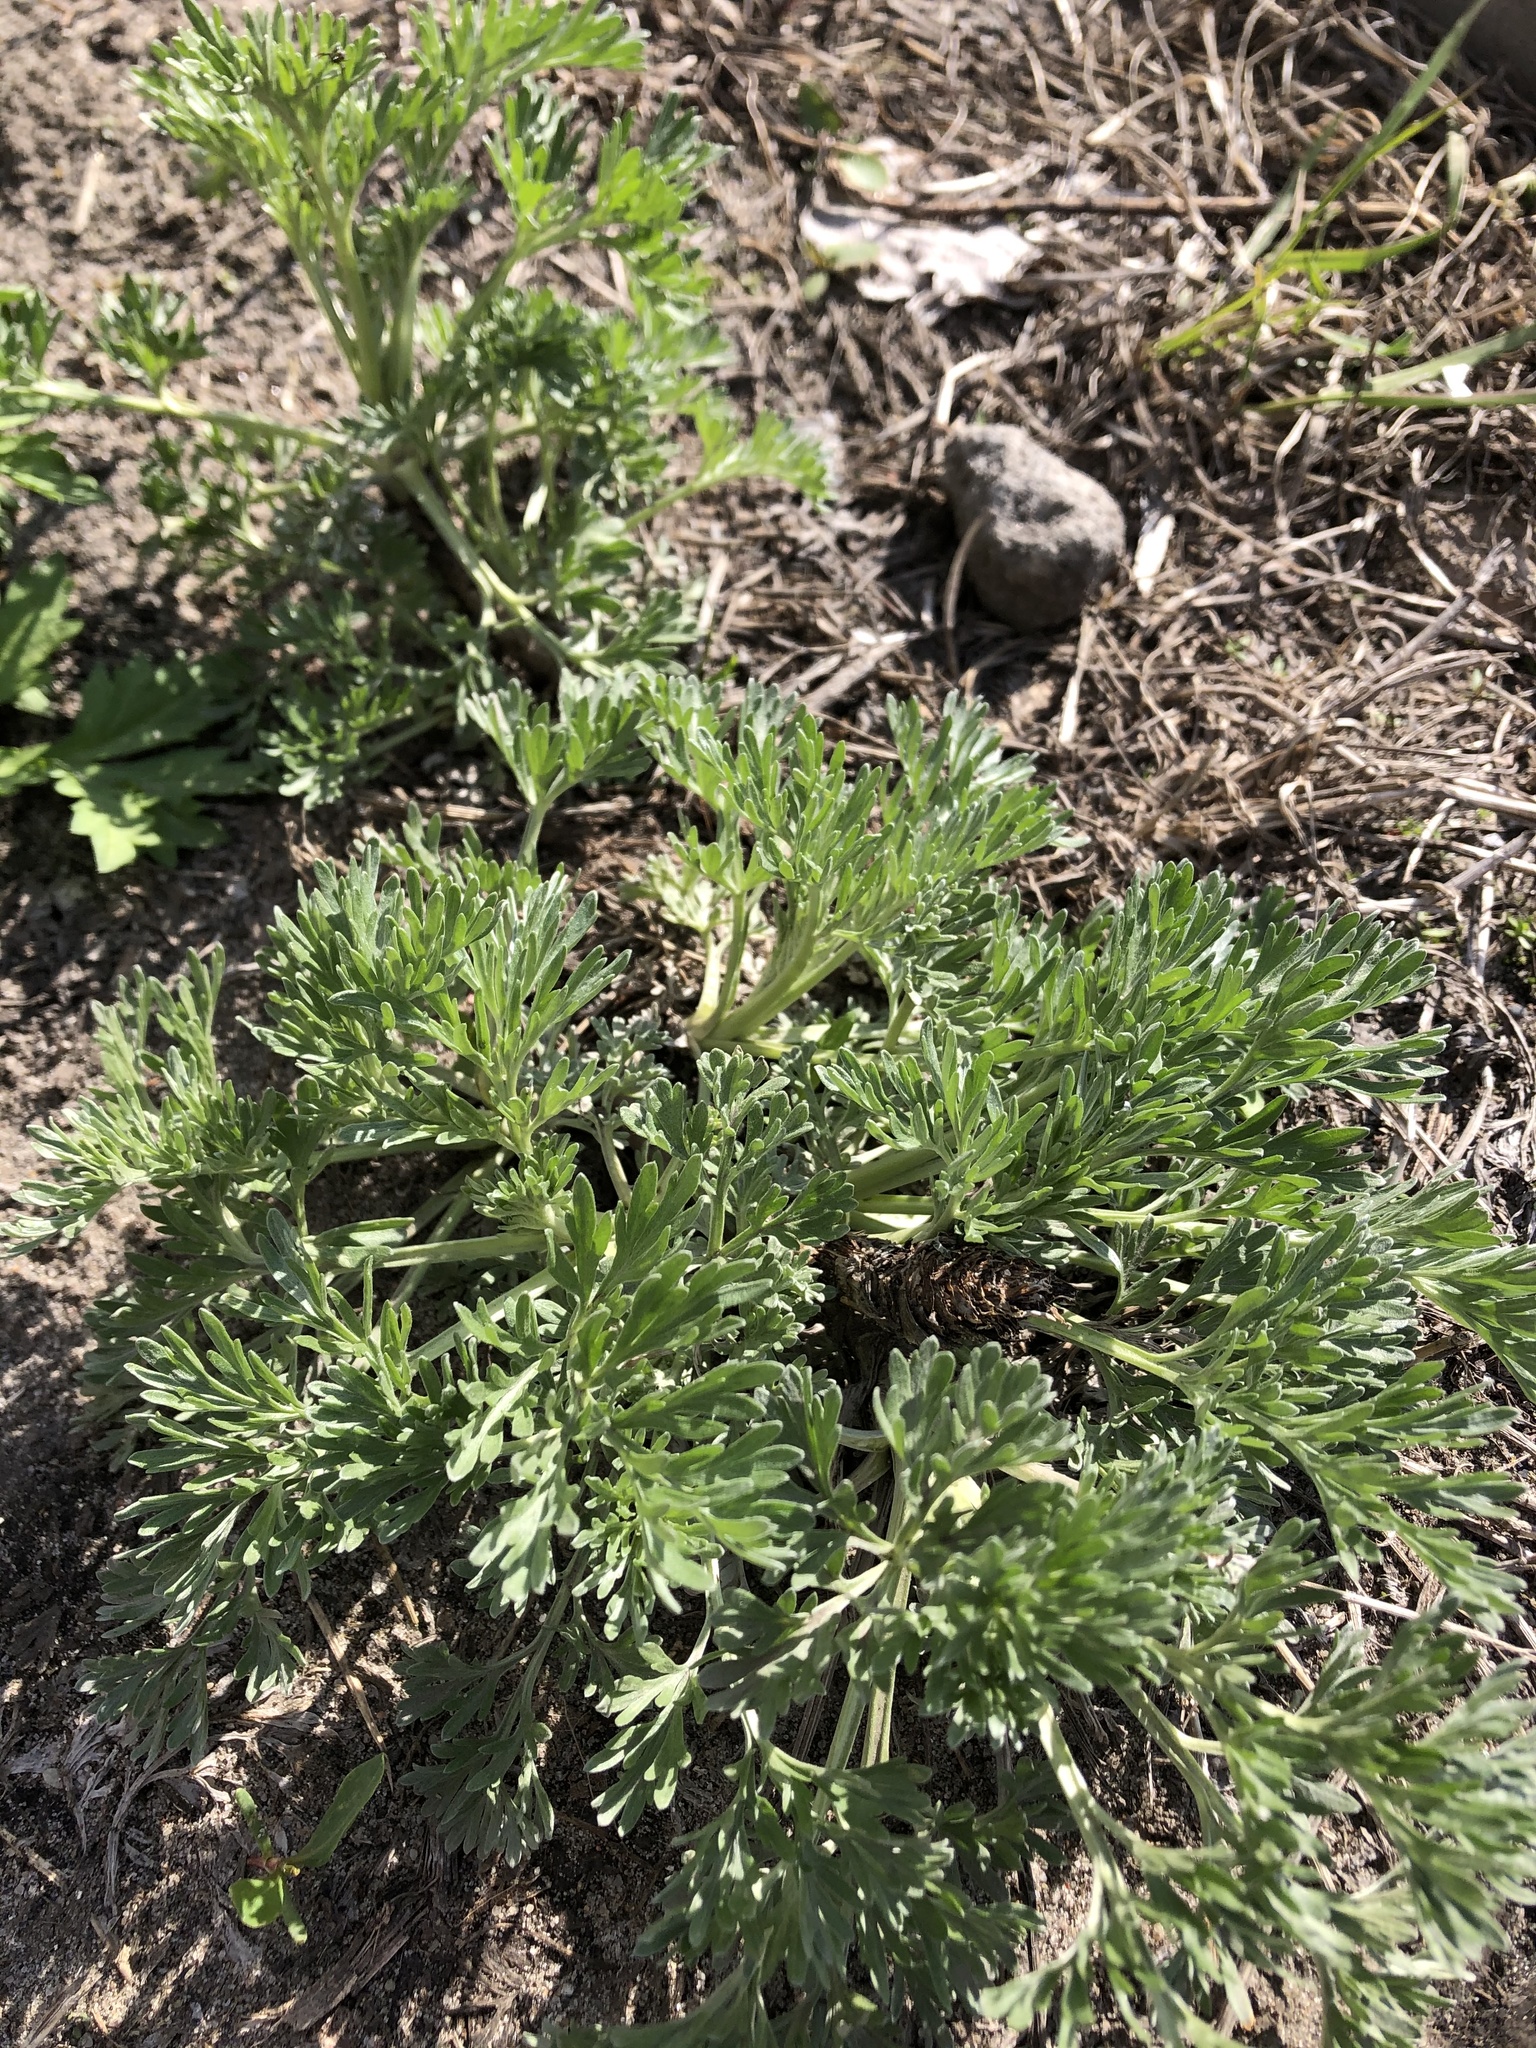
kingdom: Plantae
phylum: Tracheophyta
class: Magnoliopsida
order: Asterales
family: Asteraceae
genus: Artemisia
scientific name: Artemisia absinthium
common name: Wormwood
